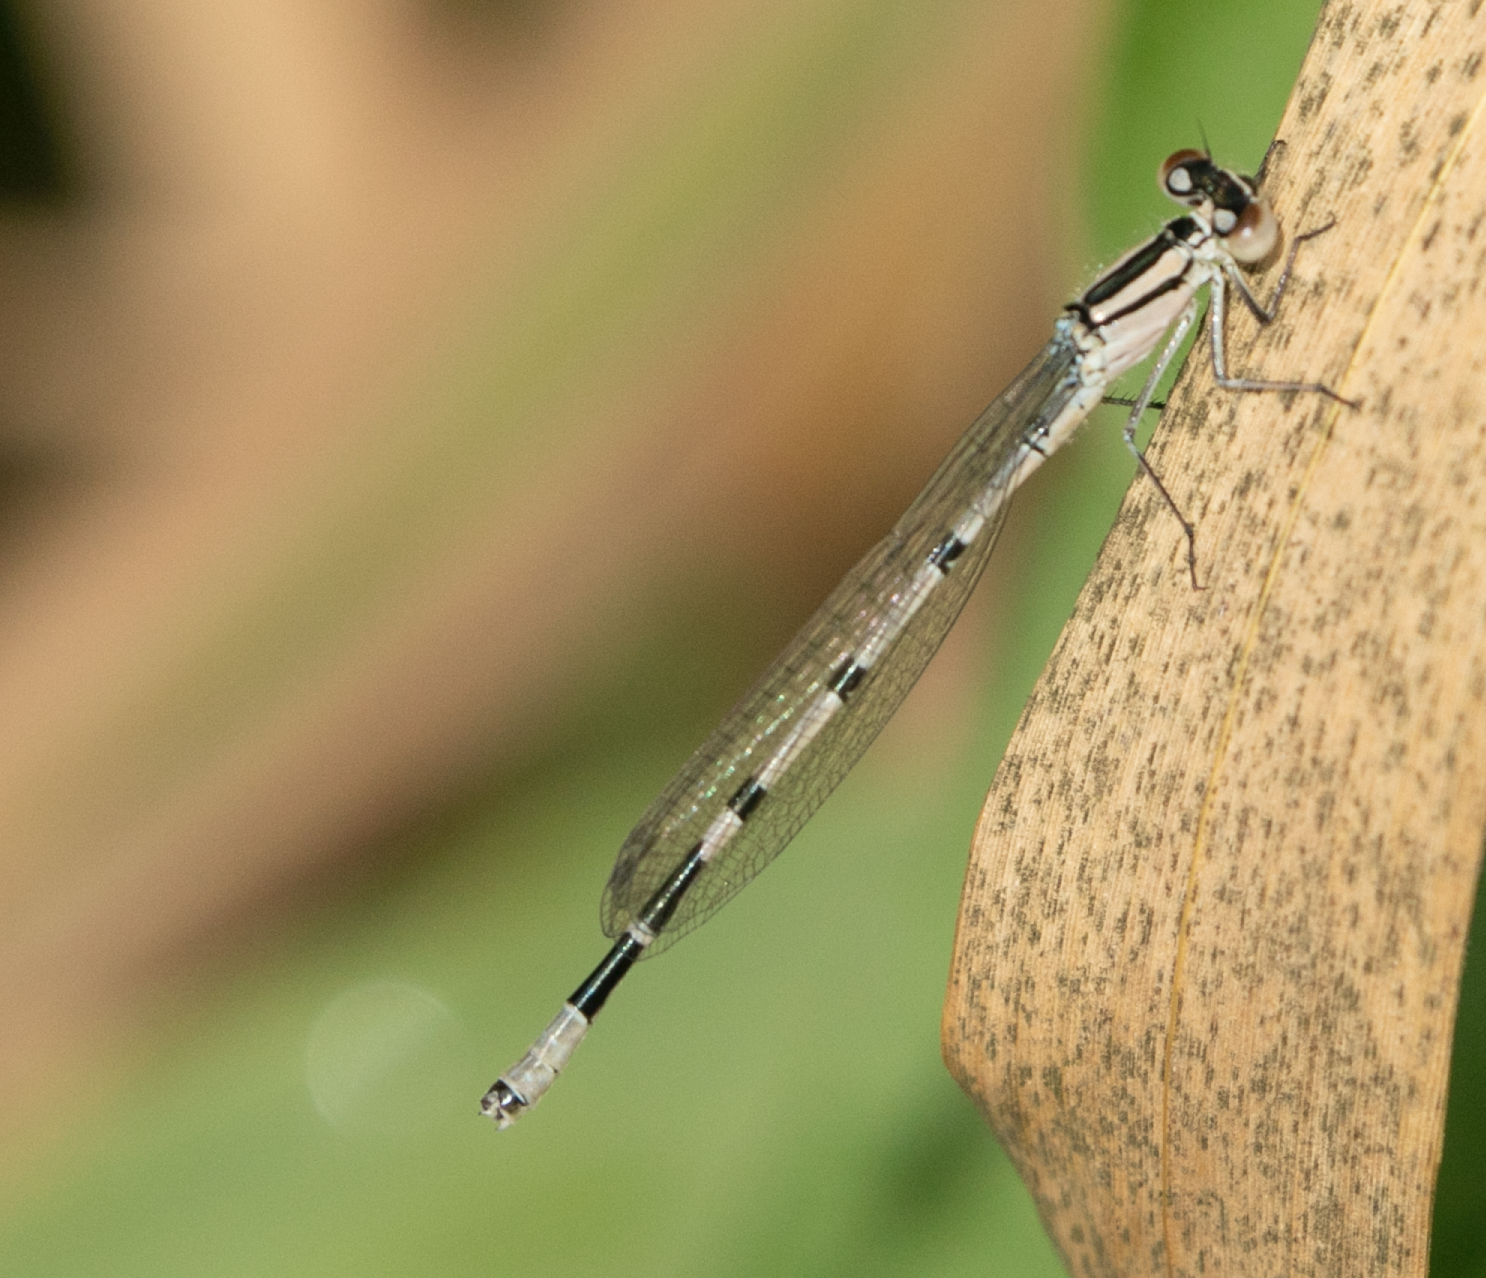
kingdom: Animalia
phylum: Arthropoda
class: Insecta
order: Odonata
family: Coenagrionidae
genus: Enallagma
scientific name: Enallagma cyathigerum
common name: Common blue damselfly
